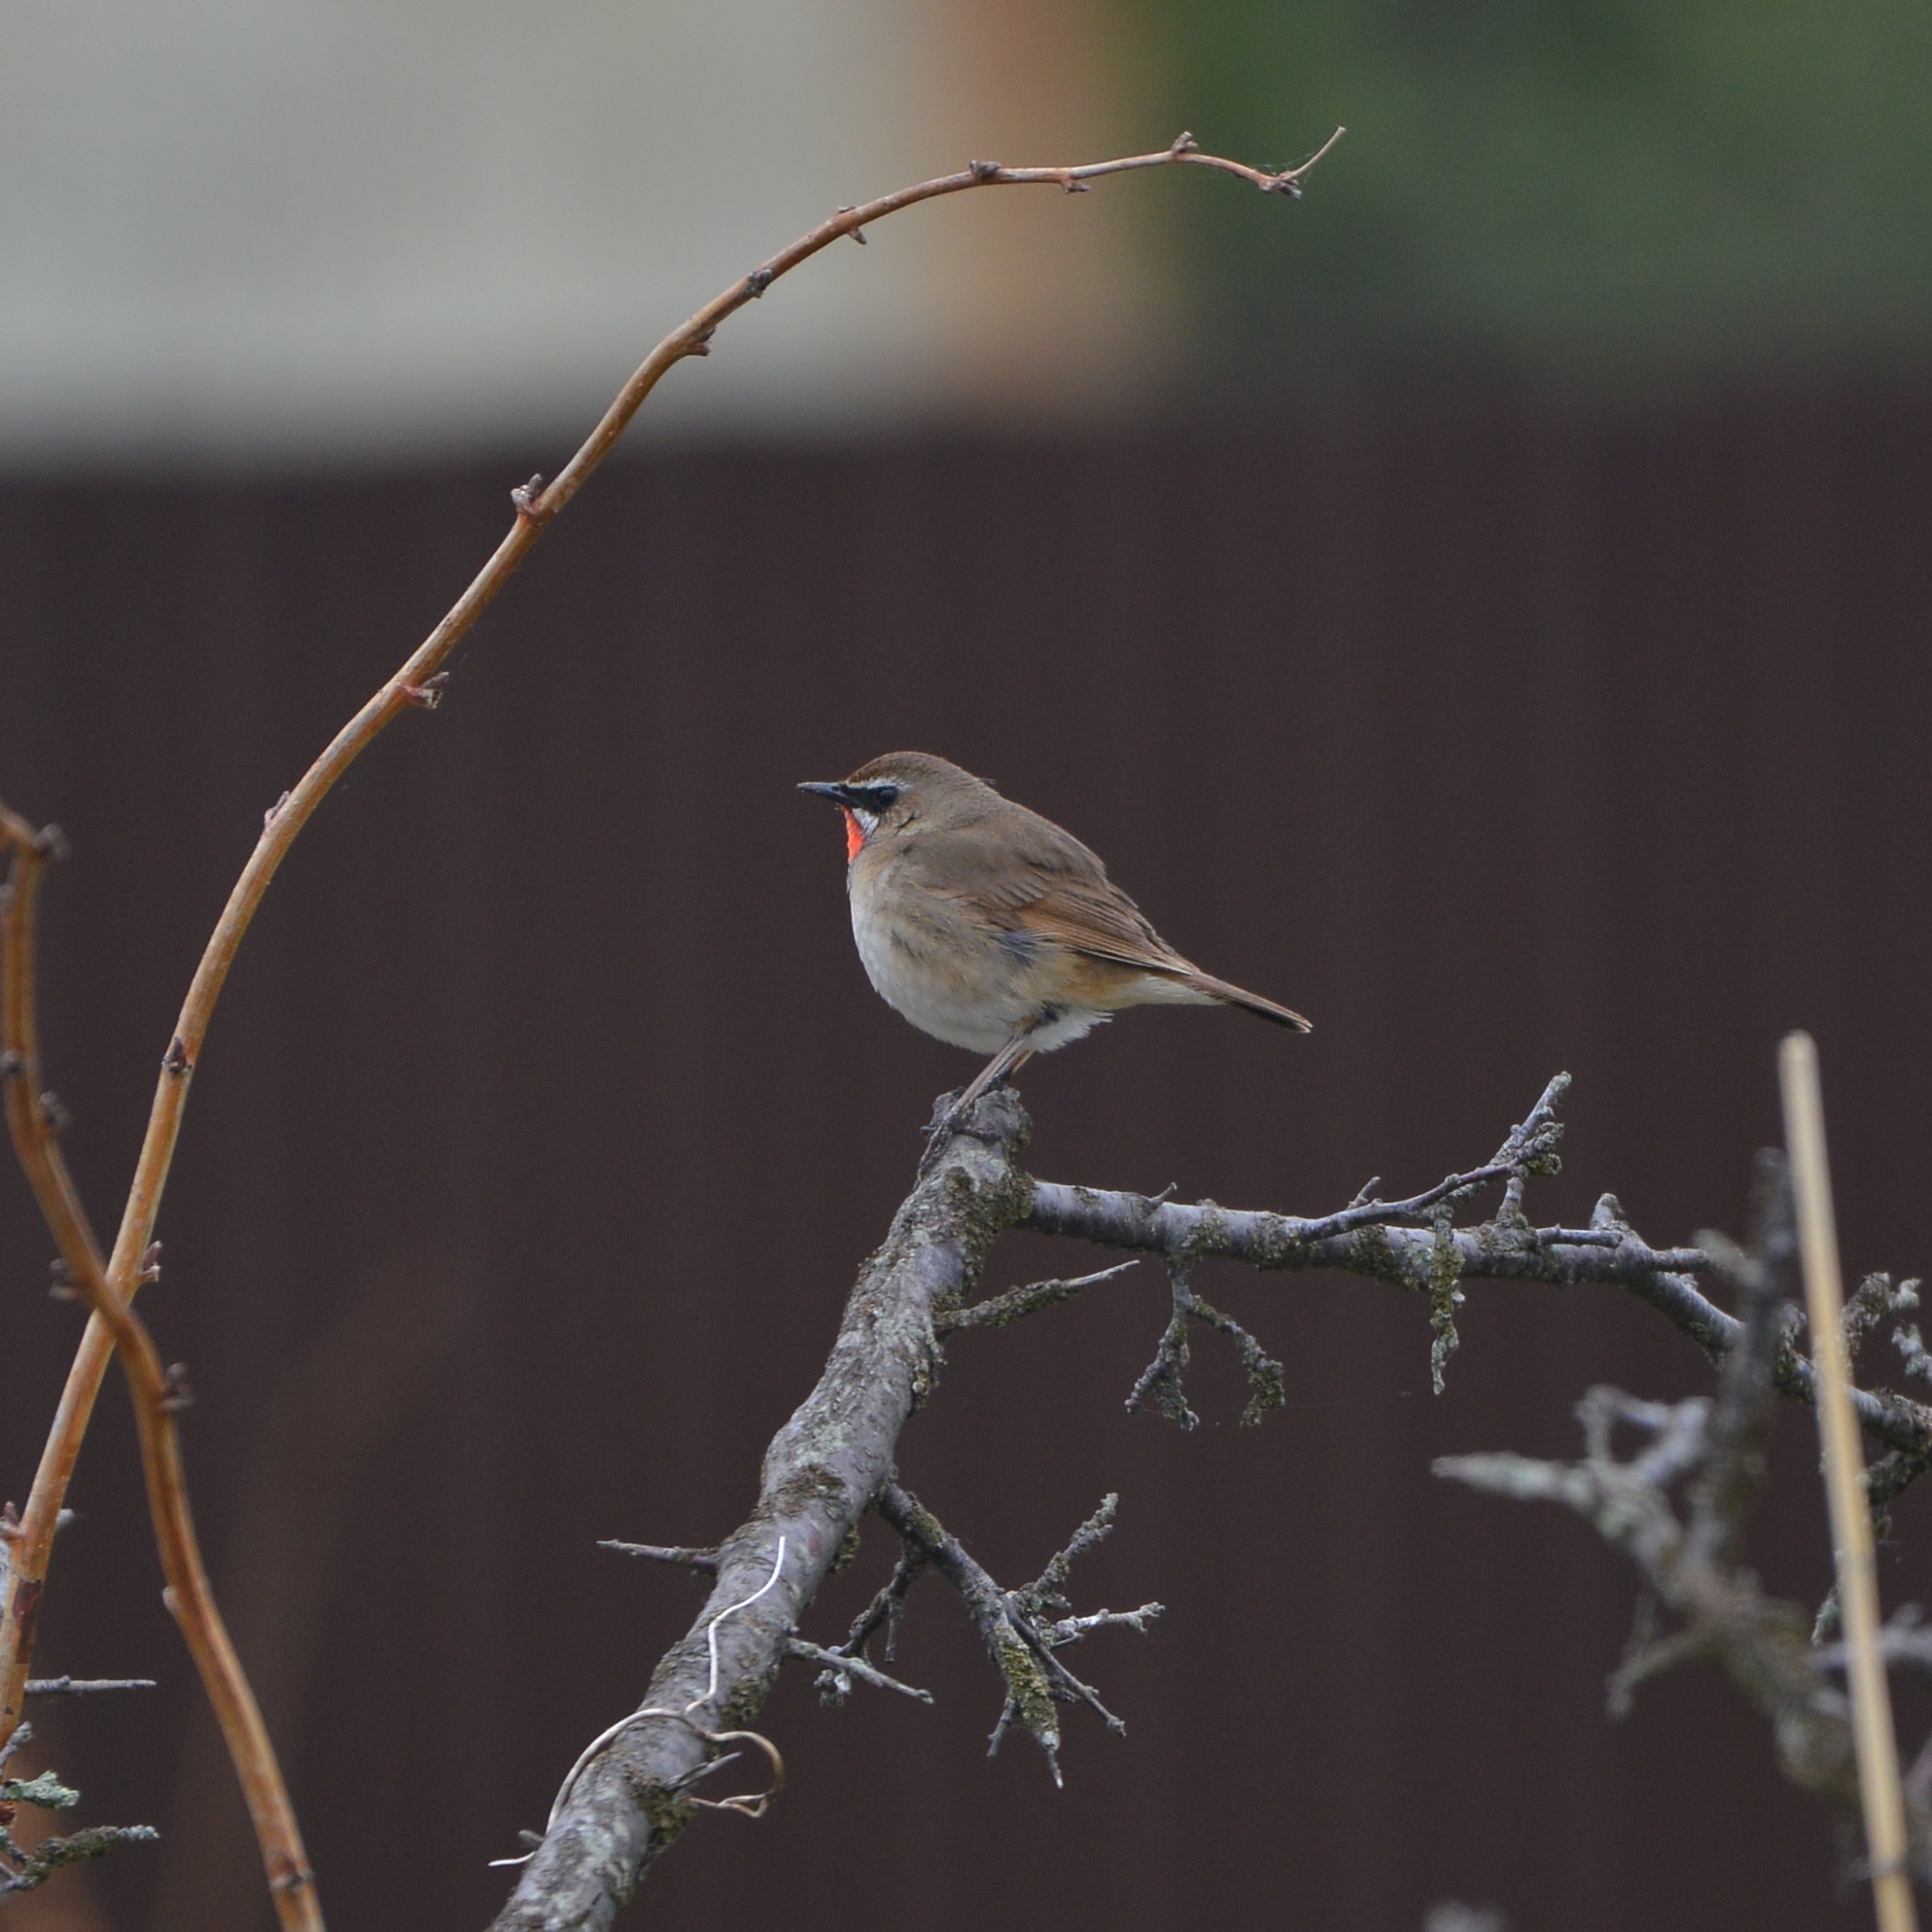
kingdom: Animalia
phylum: Chordata
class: Aves
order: Passeriformes
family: Muscicapidae
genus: Luscinia
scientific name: Luscinia calliope
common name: Siberian rubythroat
